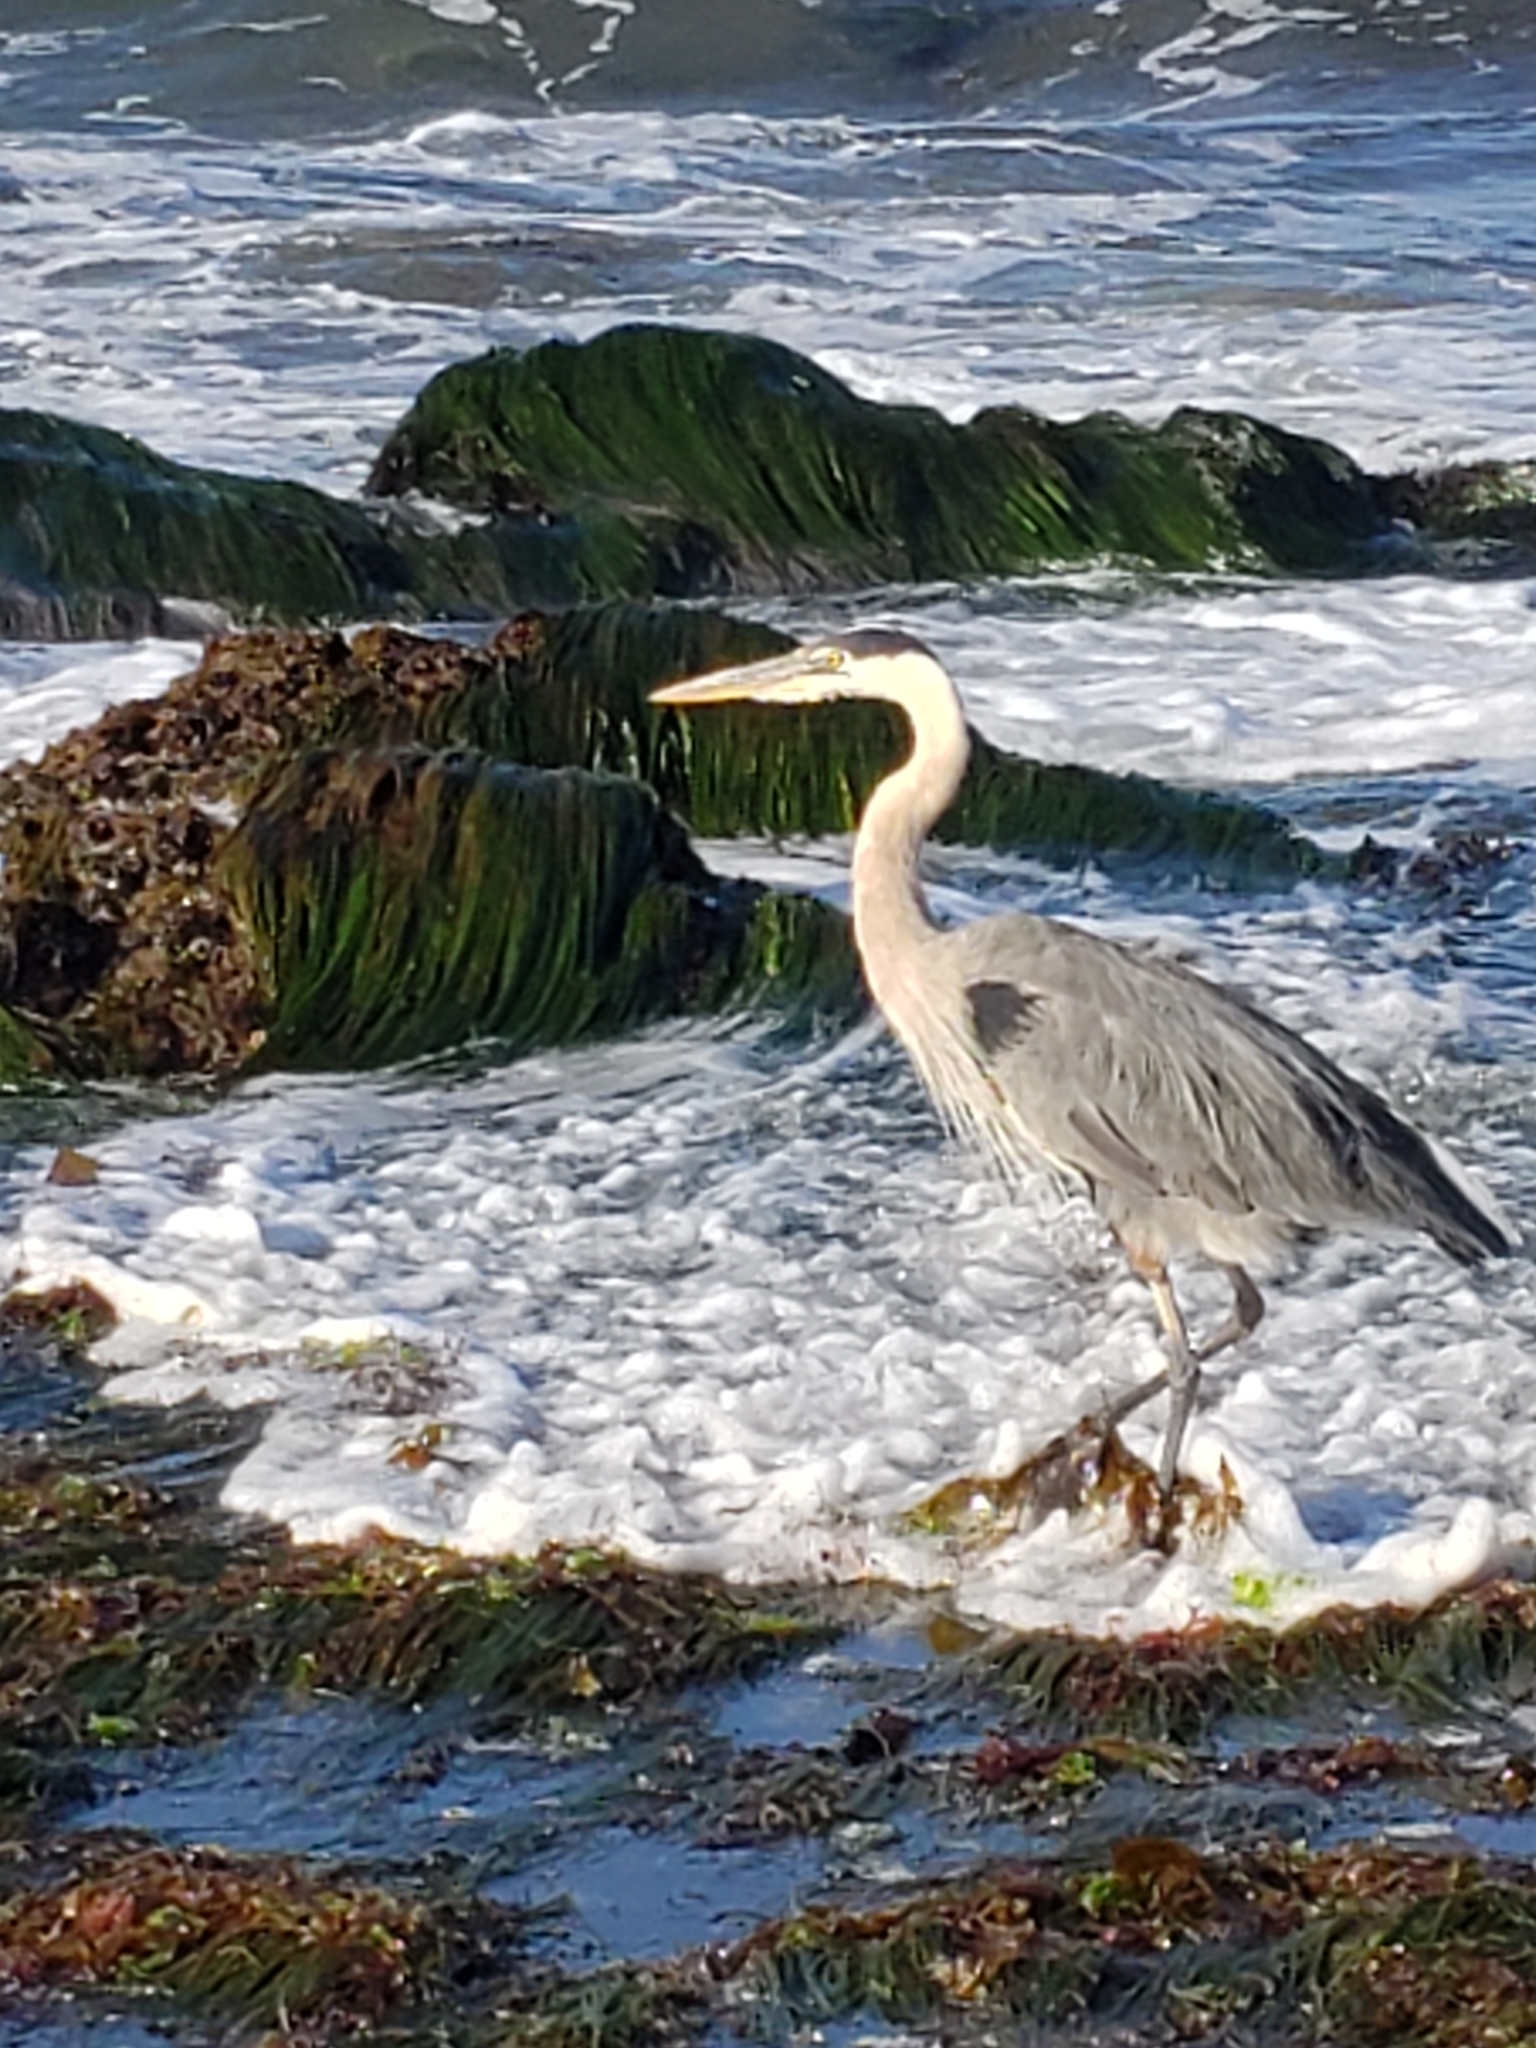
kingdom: Animalia
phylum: Chordata
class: Aves
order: Pelecaniformes
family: Ardeidae
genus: Ardea
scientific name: Ardea herodias
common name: Great blue heron
